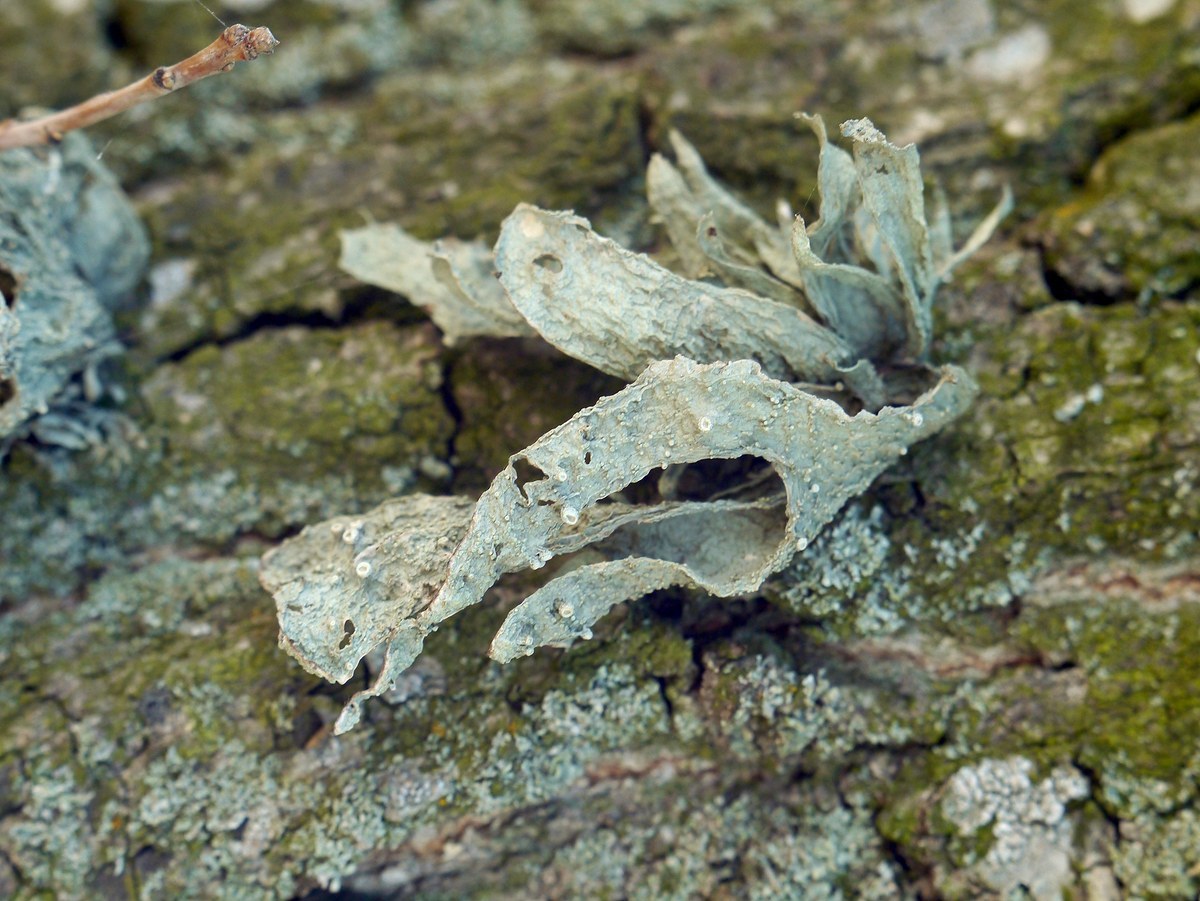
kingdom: Fungi
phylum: Ascomycota
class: Lecanoromycetes
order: Lecanorales
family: Ramalinaceae
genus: Ramalina
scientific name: Ramalina fraxinea
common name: Cartilage lichen
